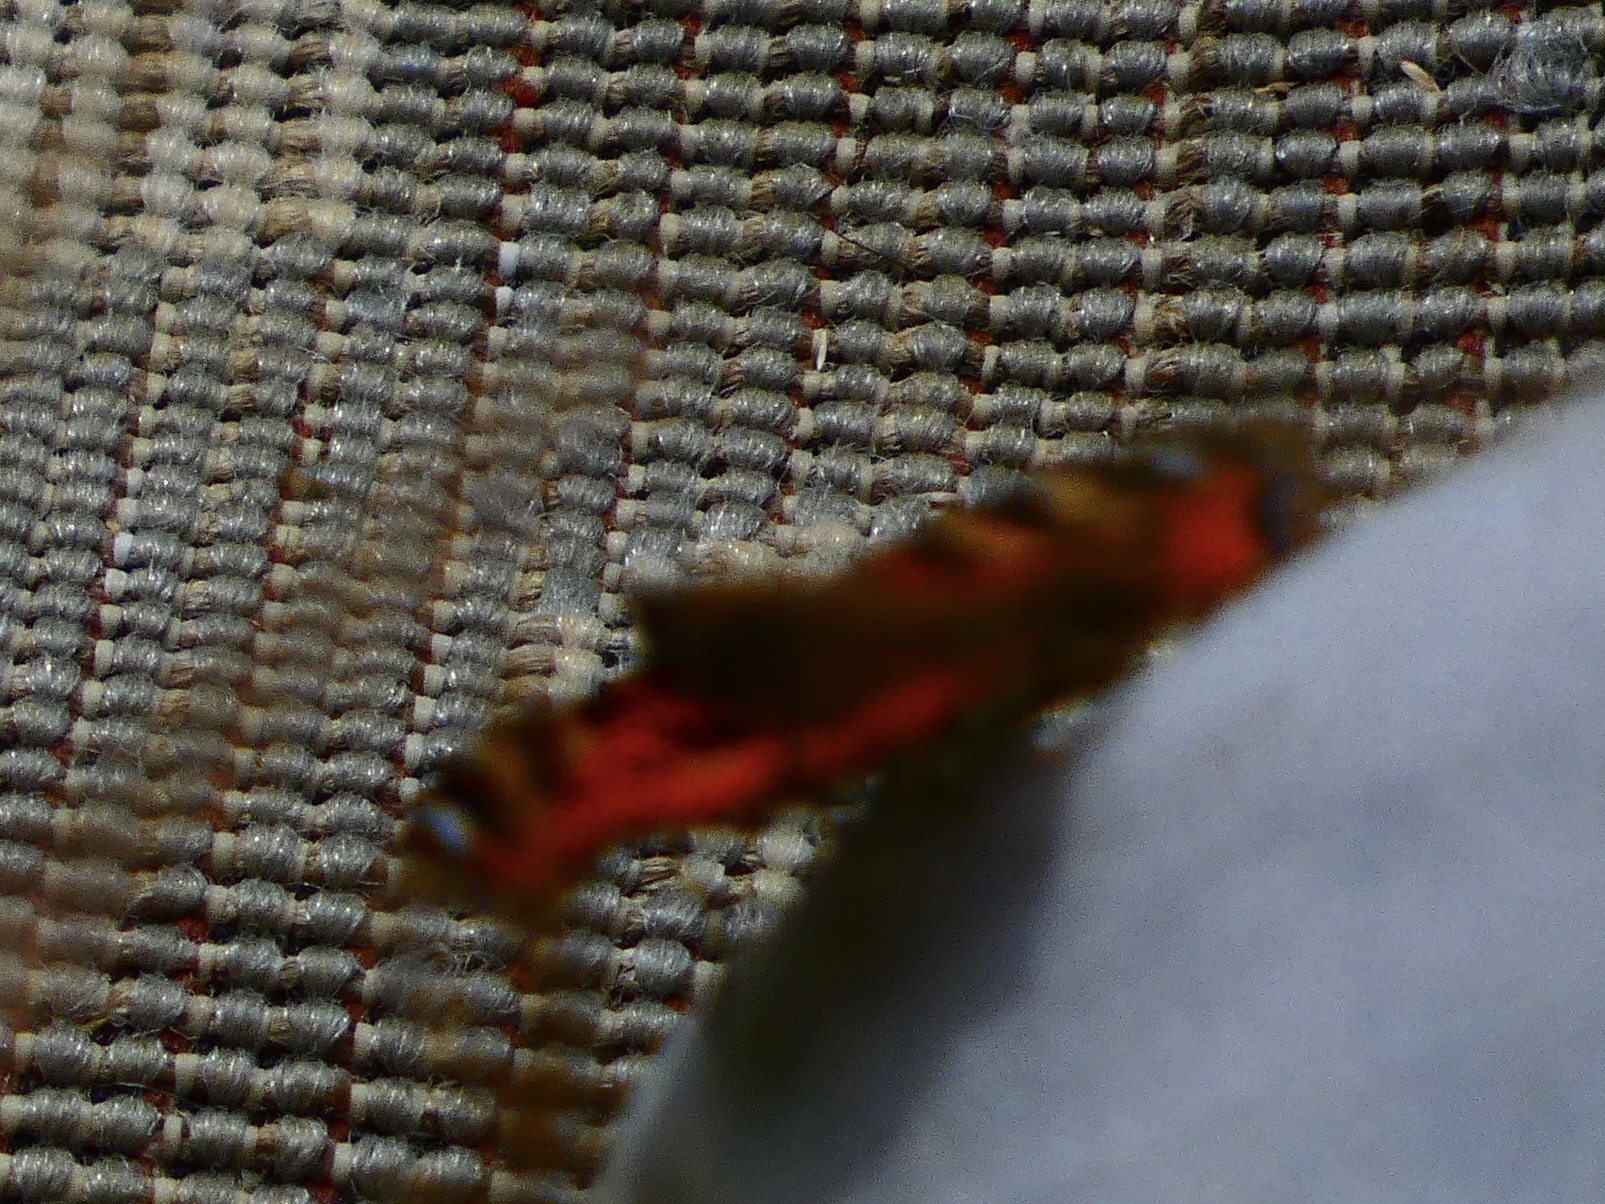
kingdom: Animalia
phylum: Arthropoda
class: Insecta
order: Lepidoptera
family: Nymphalidae
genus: Aglais
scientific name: Aglais urticae
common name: Small tortoiseshell
